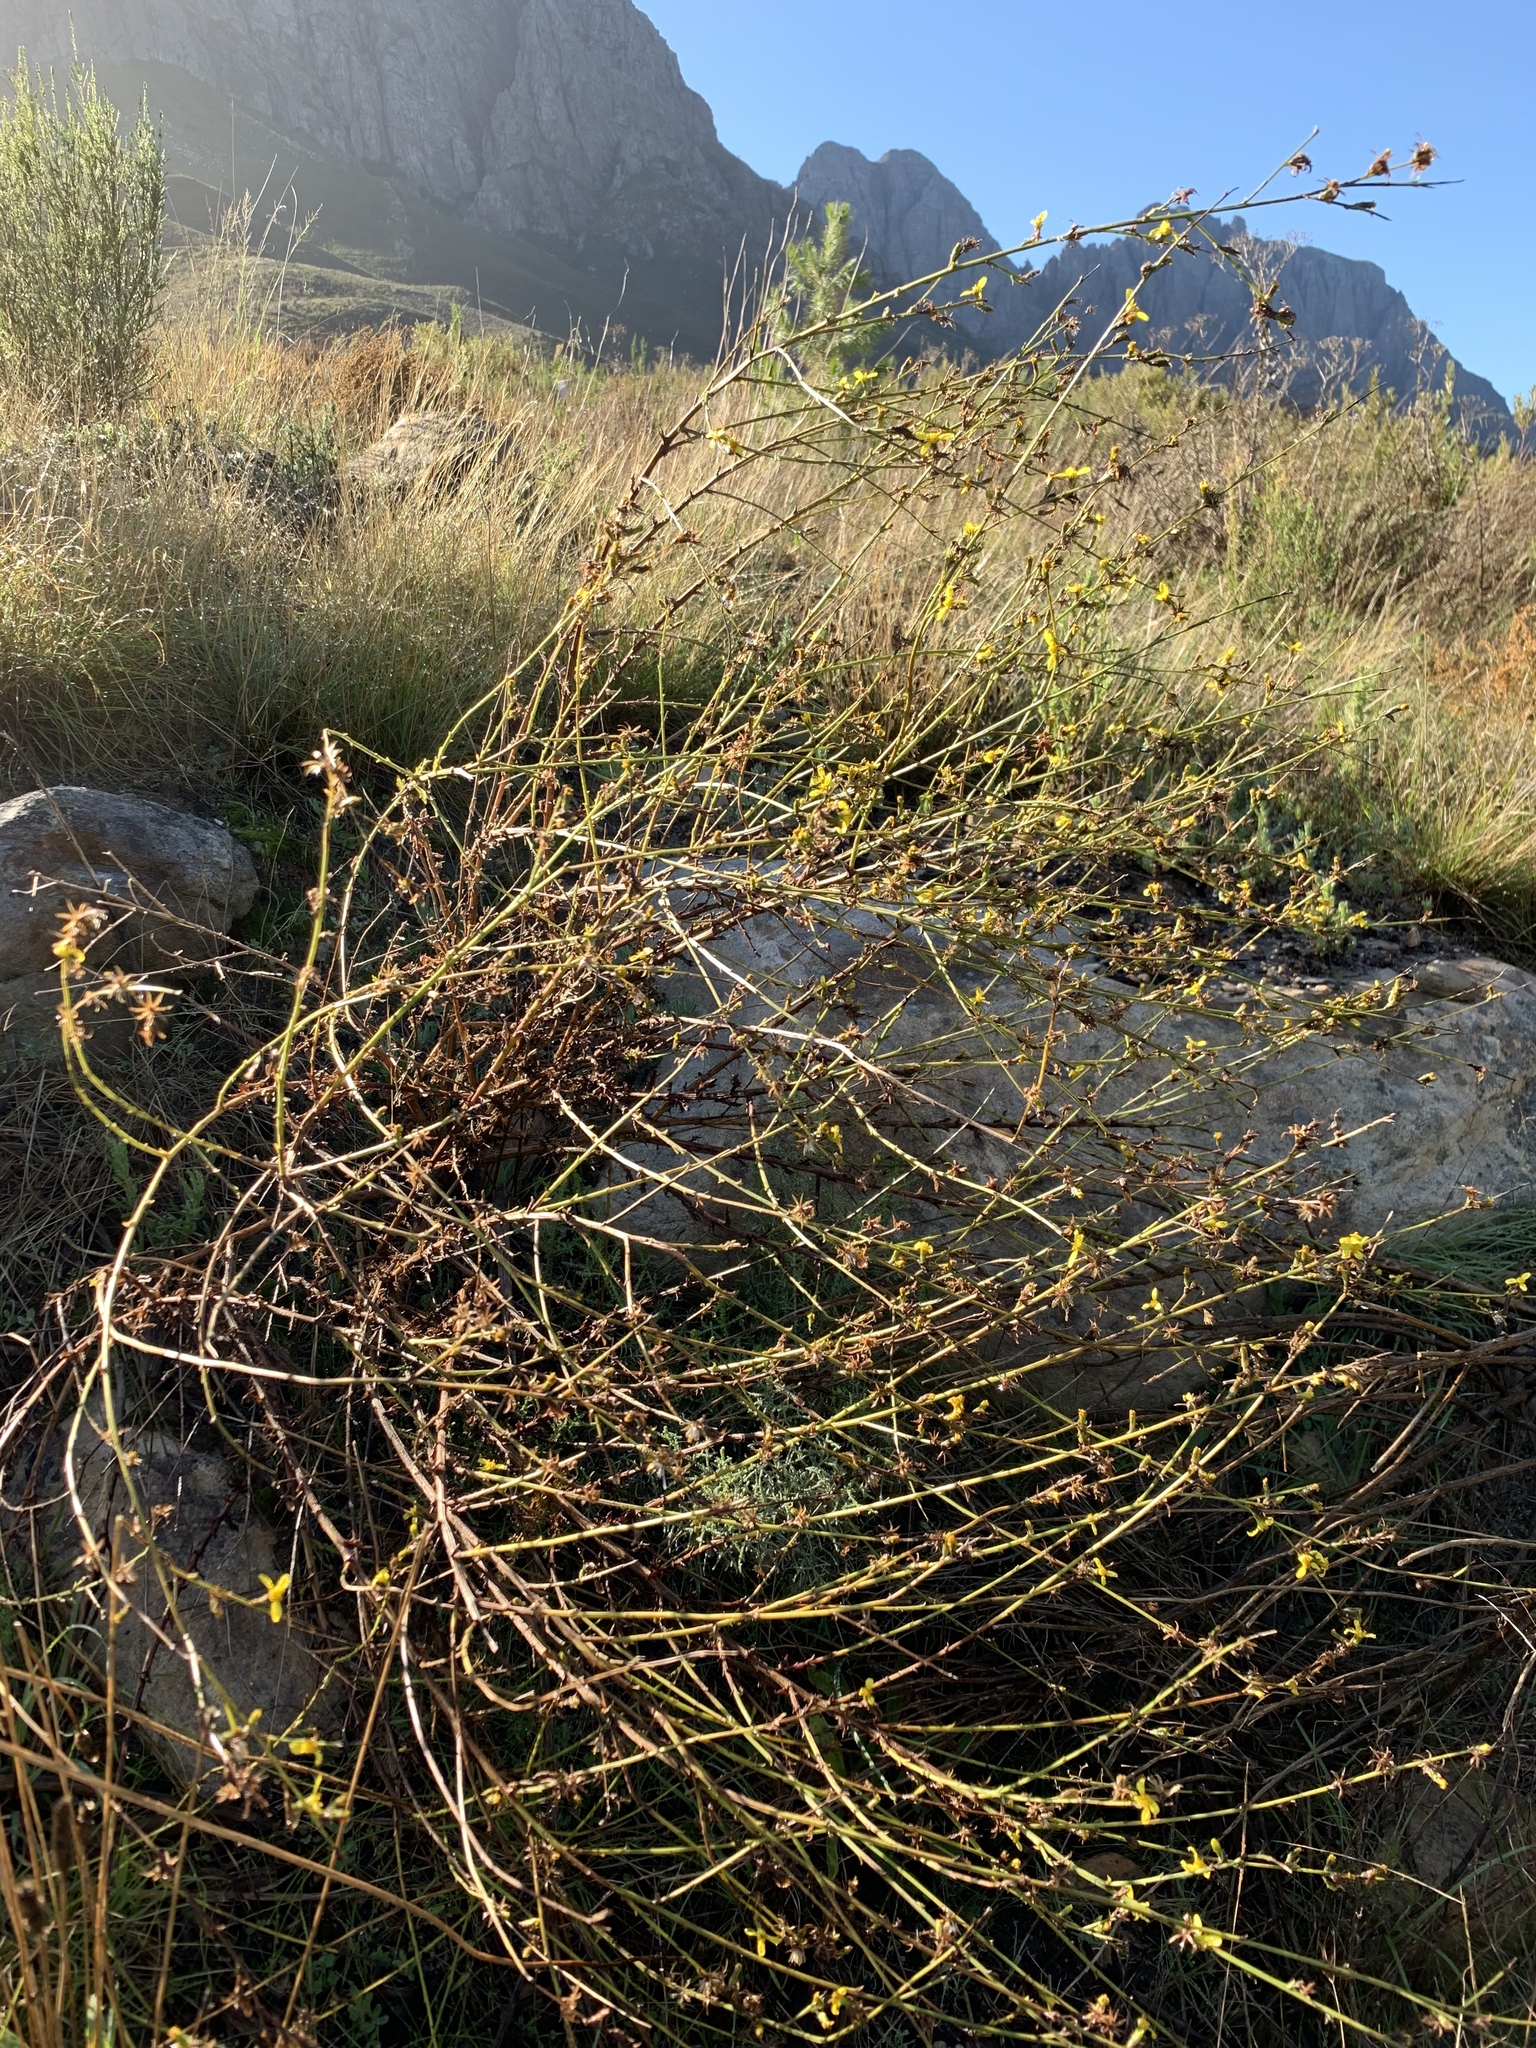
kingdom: Plantae
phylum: Tracheophyta
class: Magnoliopsida
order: Asterales
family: Asteraceae
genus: Senecio
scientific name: Senecio pubigerus
